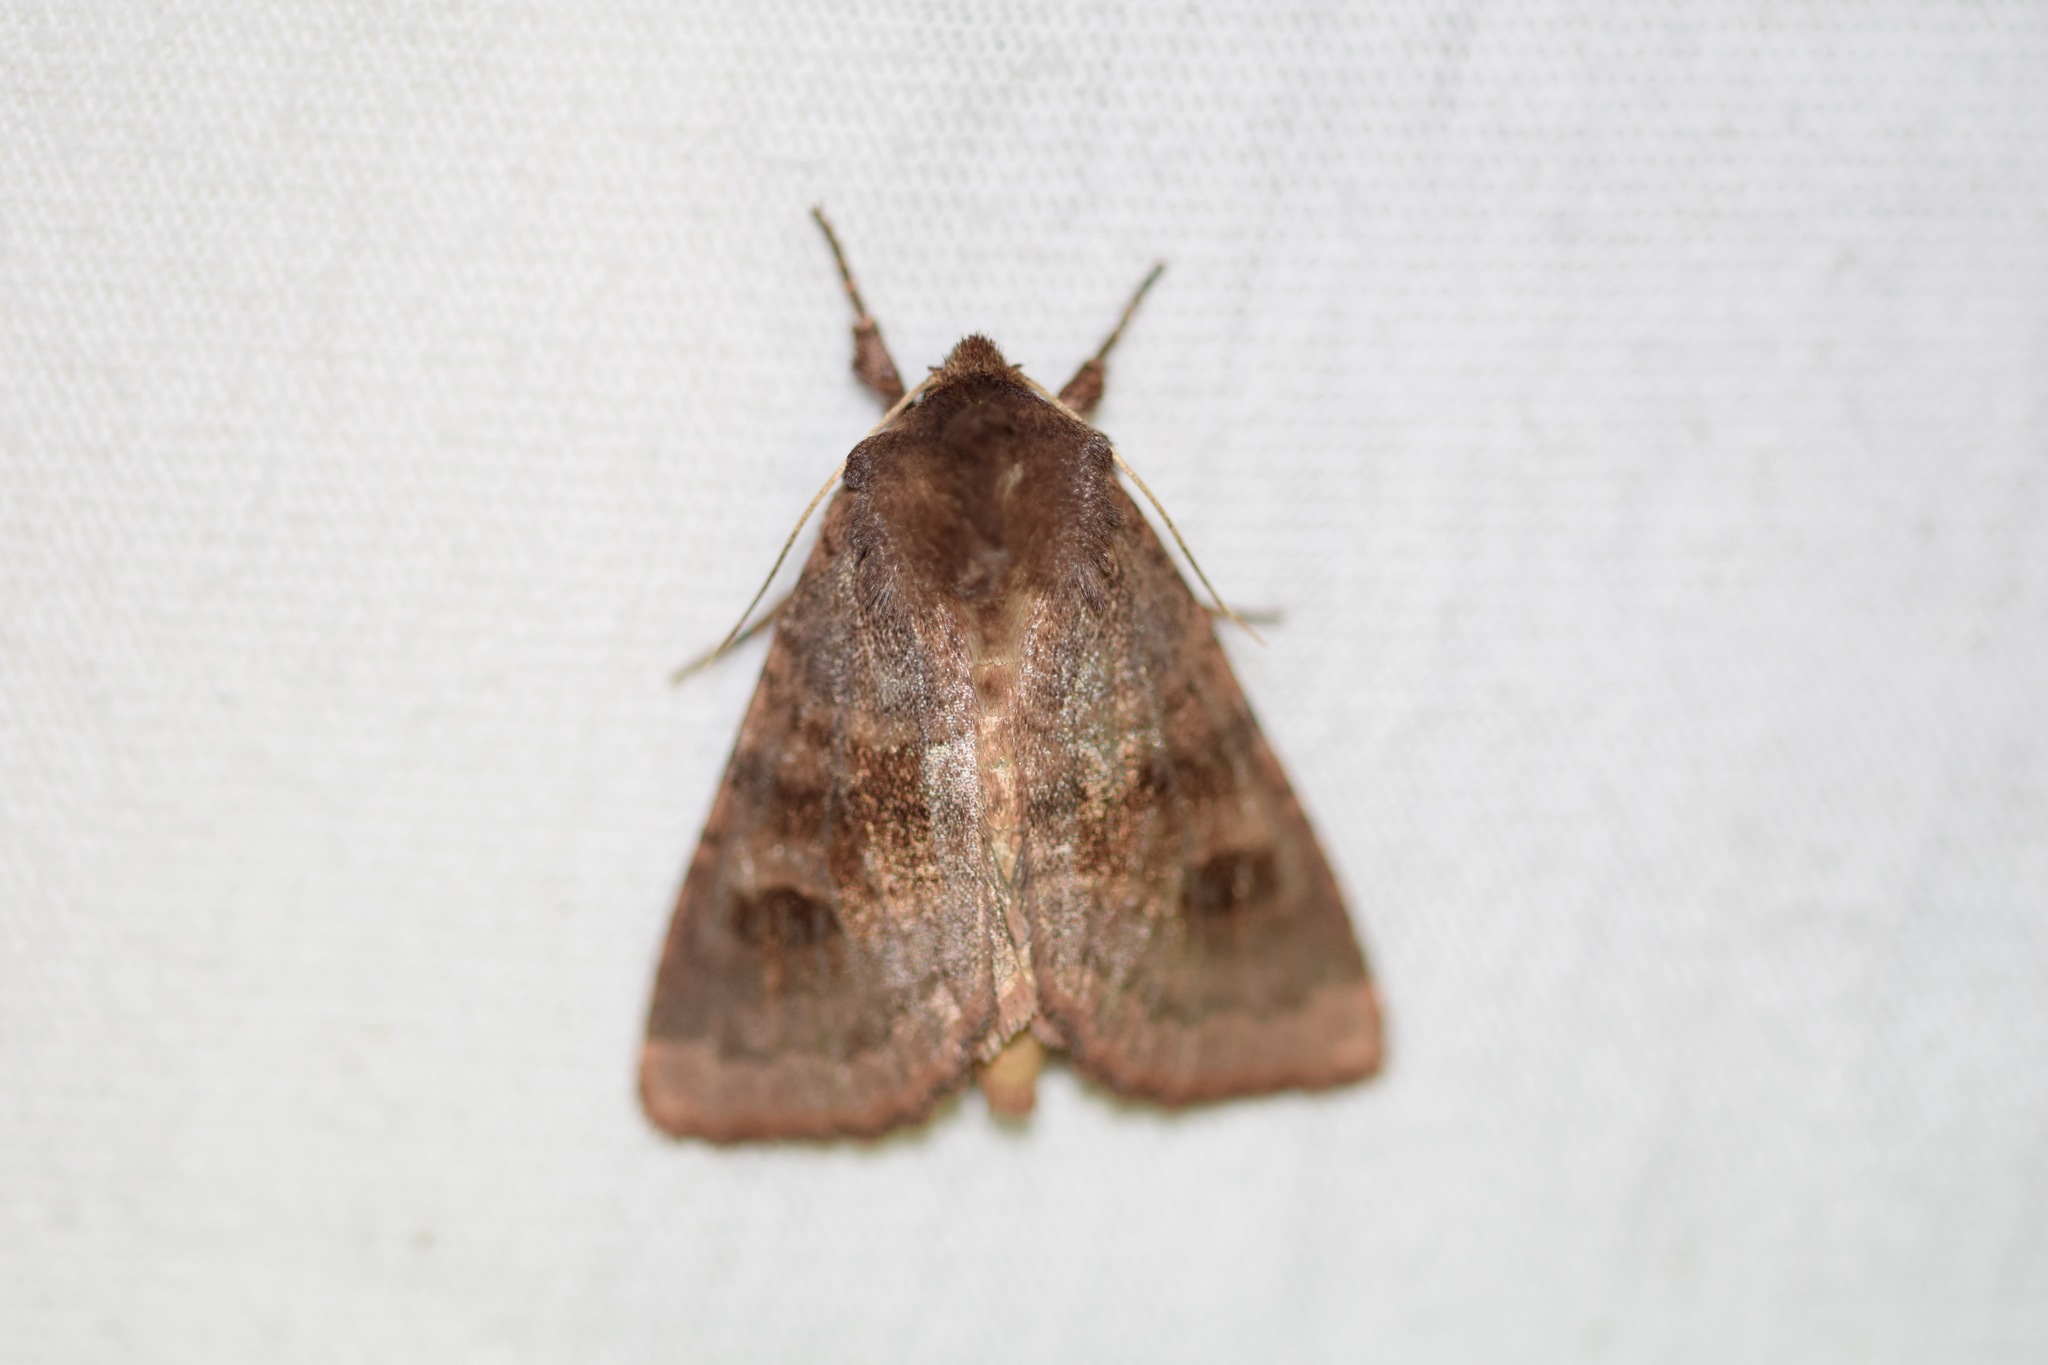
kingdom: Animalia
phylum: Arthropoda
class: Insecta
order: Lepidoptera
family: Noctuidae
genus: Nephelodes
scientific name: Nephelodes minians
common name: Bronzed cutworm
